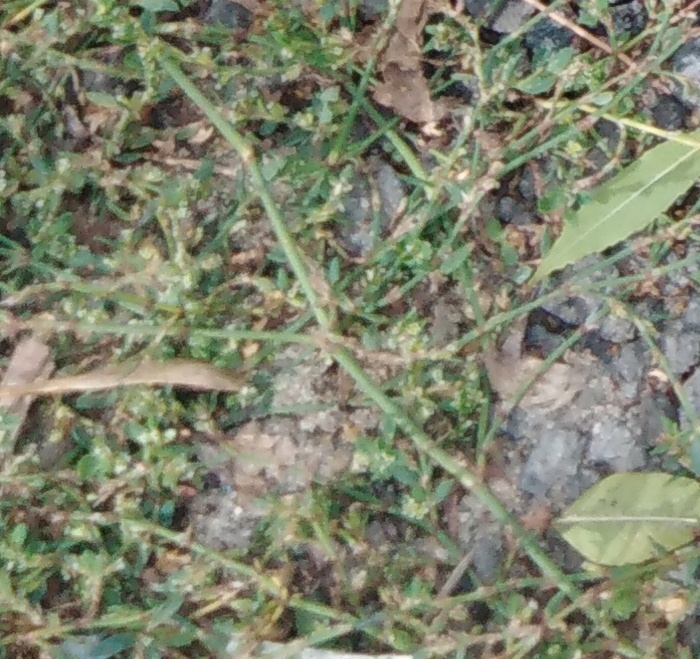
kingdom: Plantae
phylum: Tracheophyta
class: Magnoliopsida
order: Caryophyllales
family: Polygonaceae
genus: Polygonum
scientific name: Polygonum
